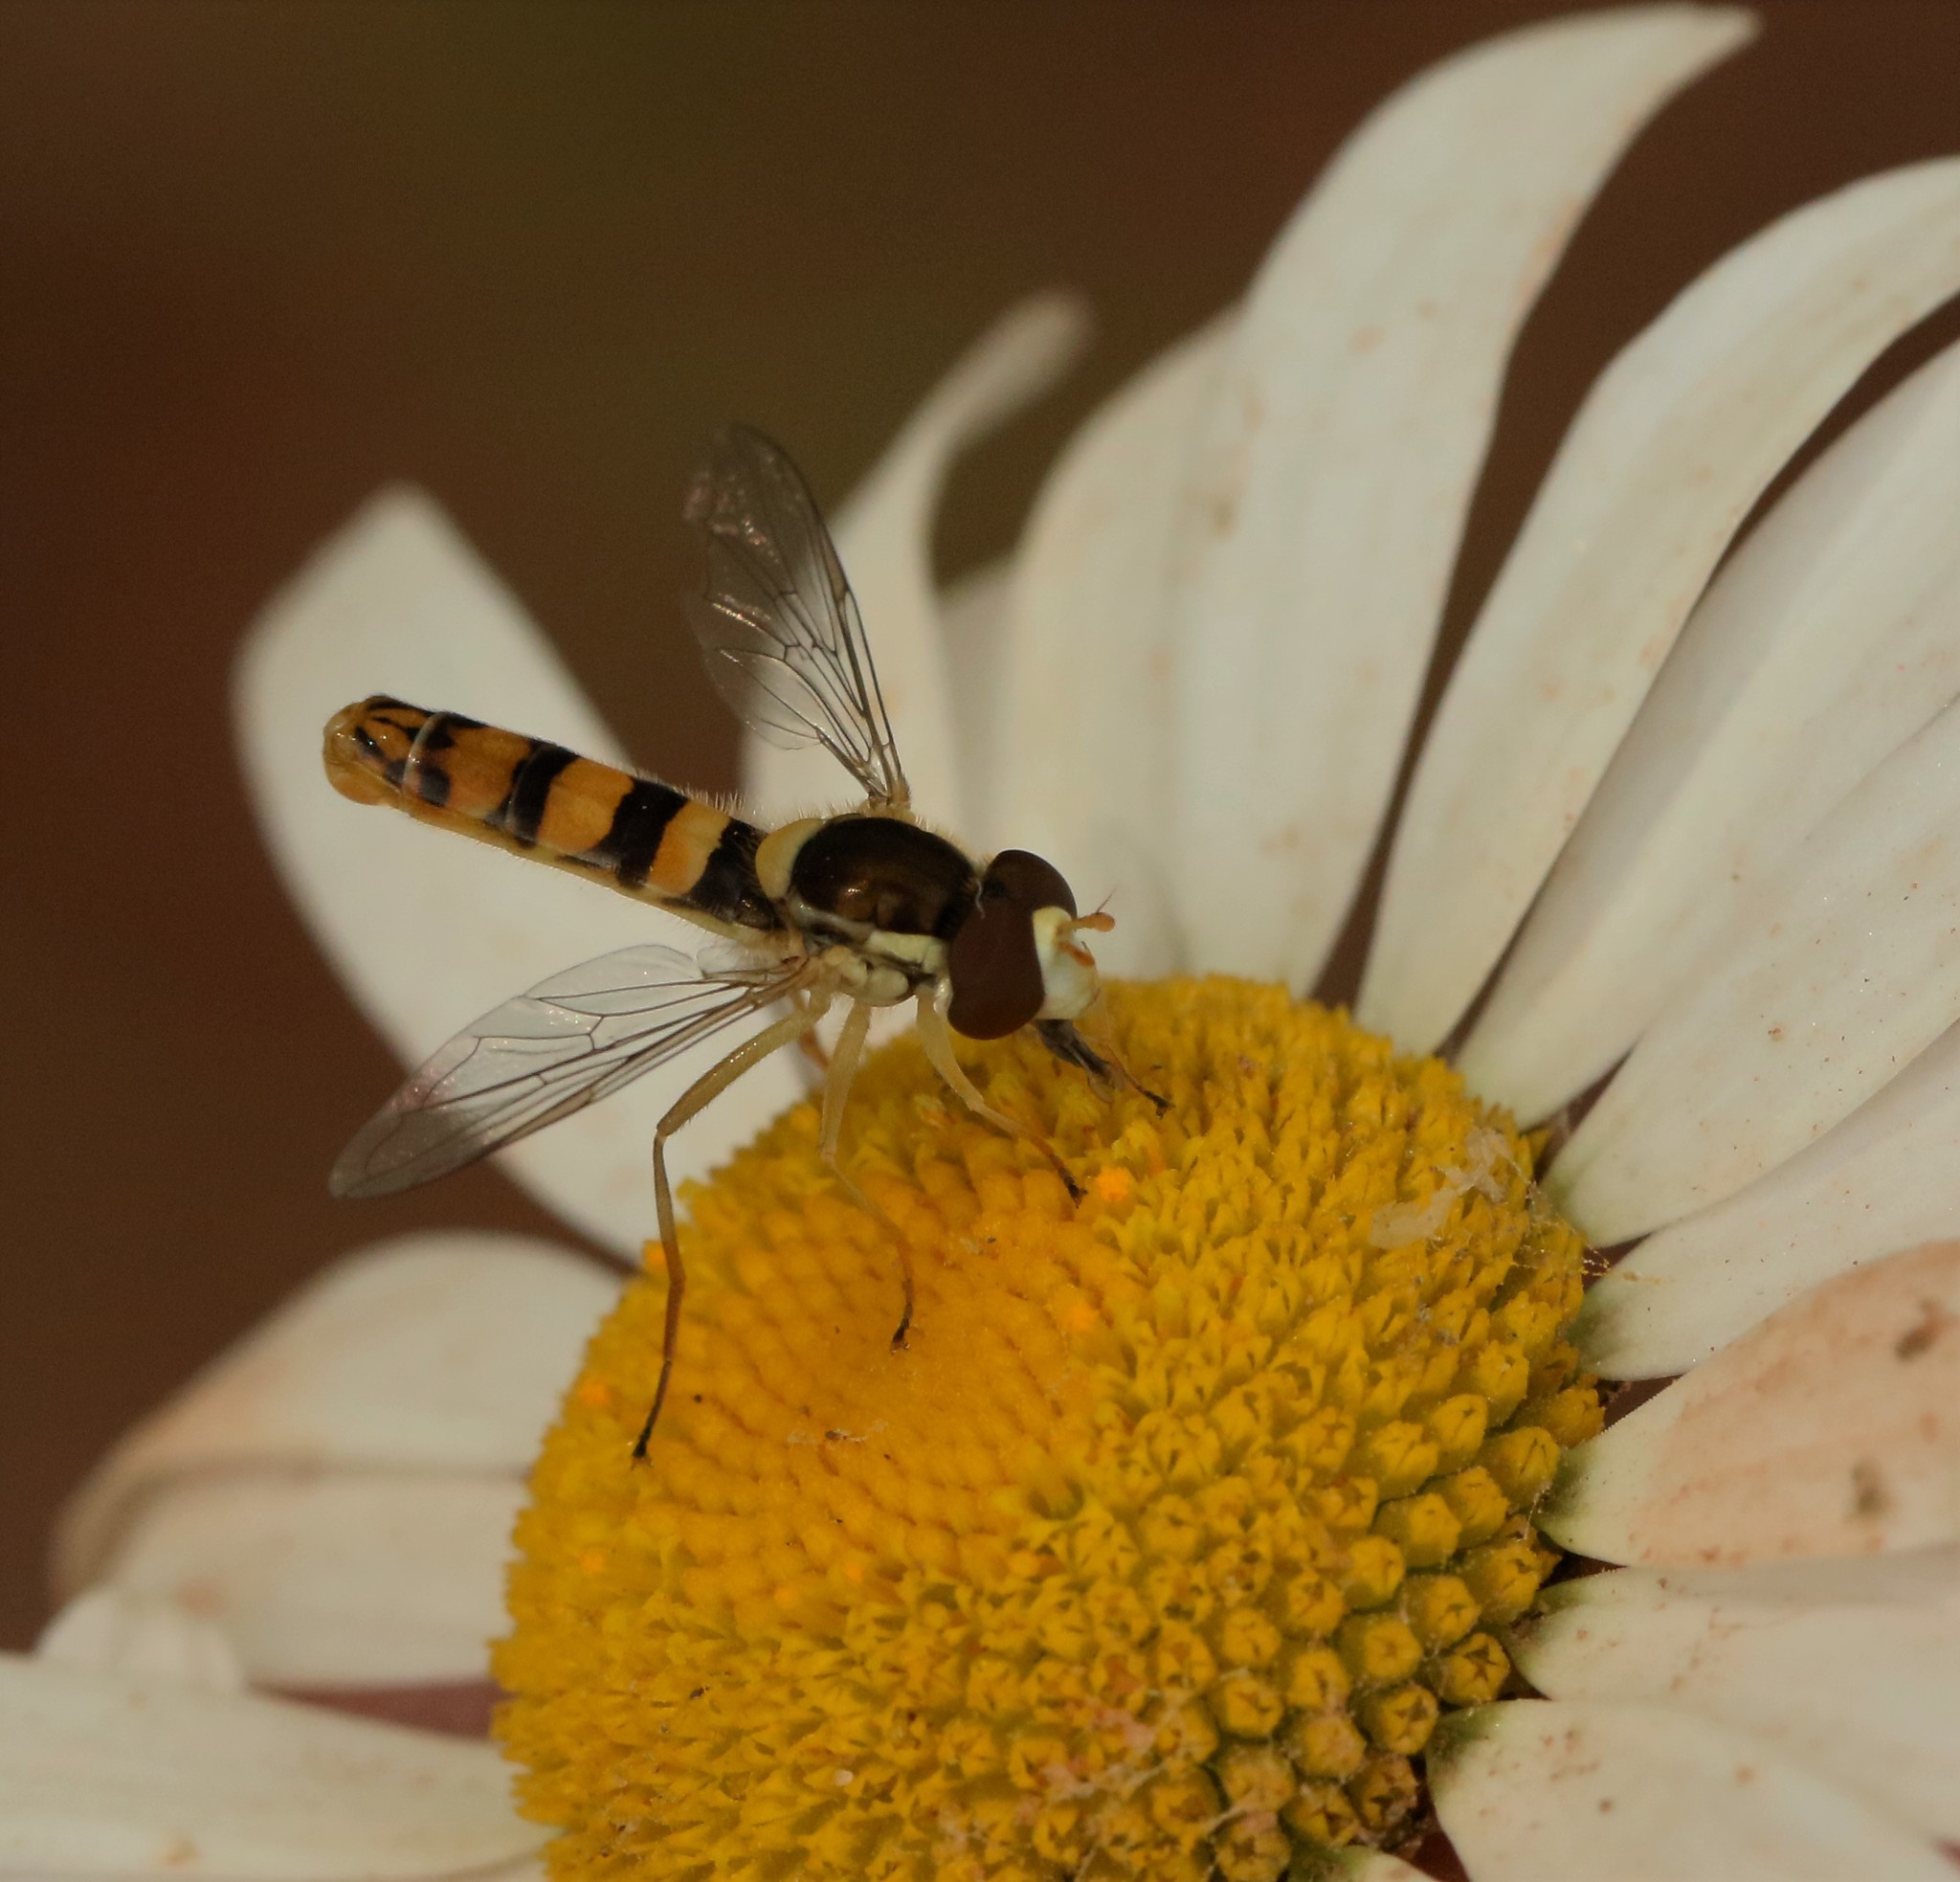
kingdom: Animalia
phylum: Arthropoda
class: Insecta
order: Diptera
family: Syrphidae
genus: Sphaerophoria
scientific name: Sphaerophoria philantha
